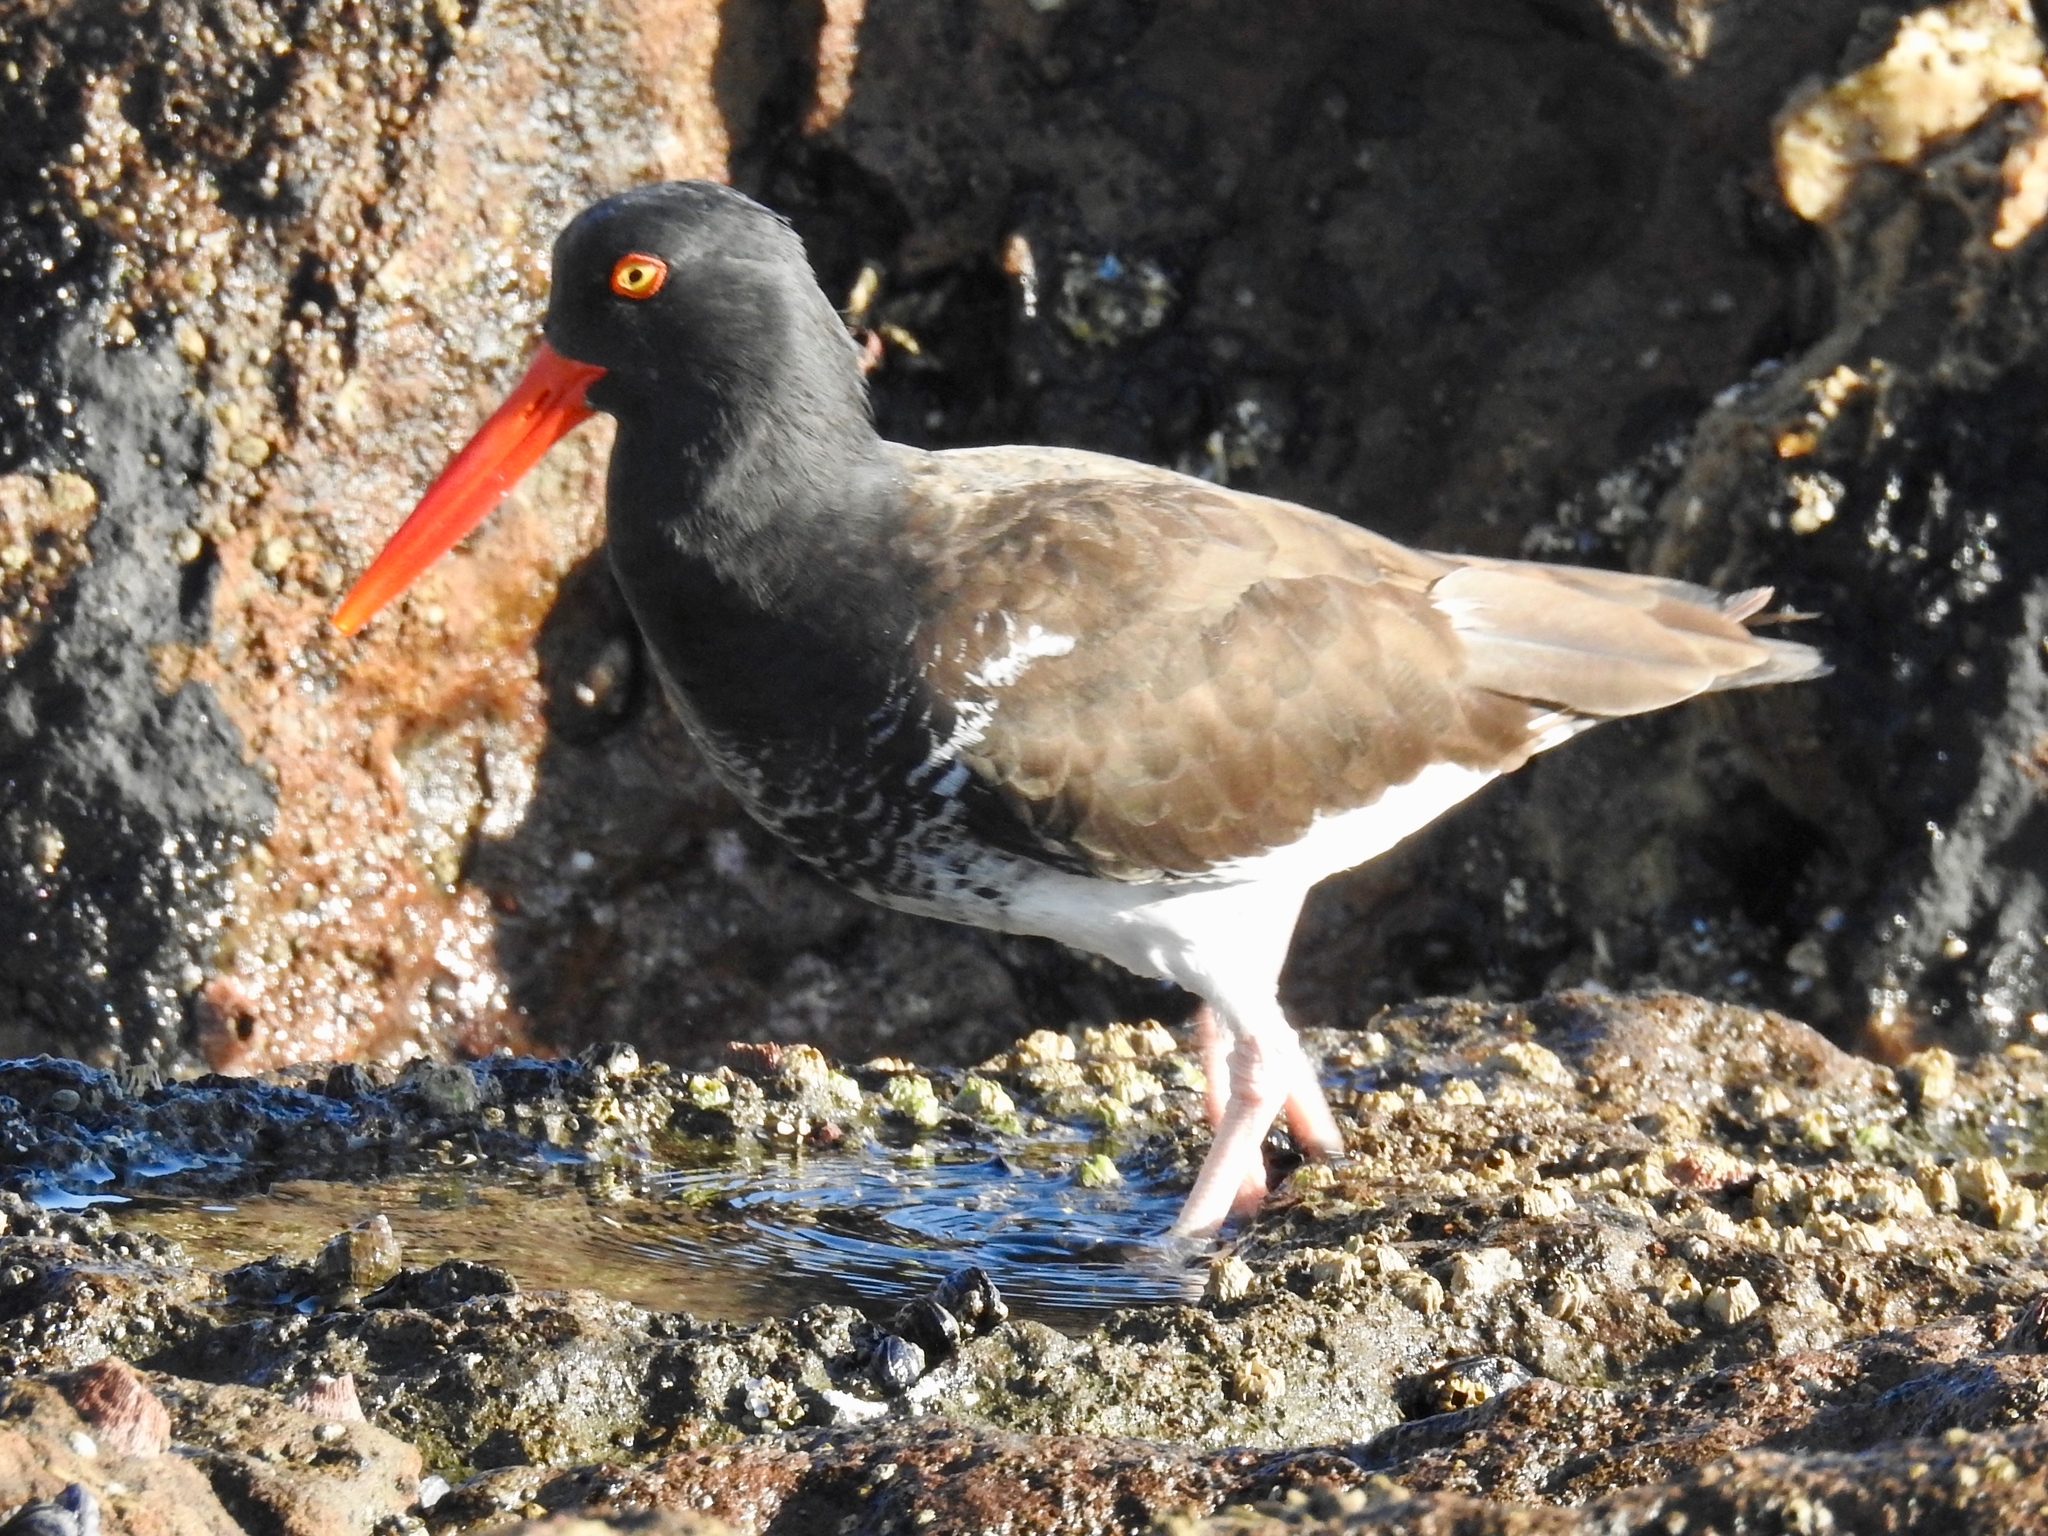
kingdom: Animalia
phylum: Chordata
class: Aves
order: Charadriiformes
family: Haematopodidae
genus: Haematopus
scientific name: Haematopus
